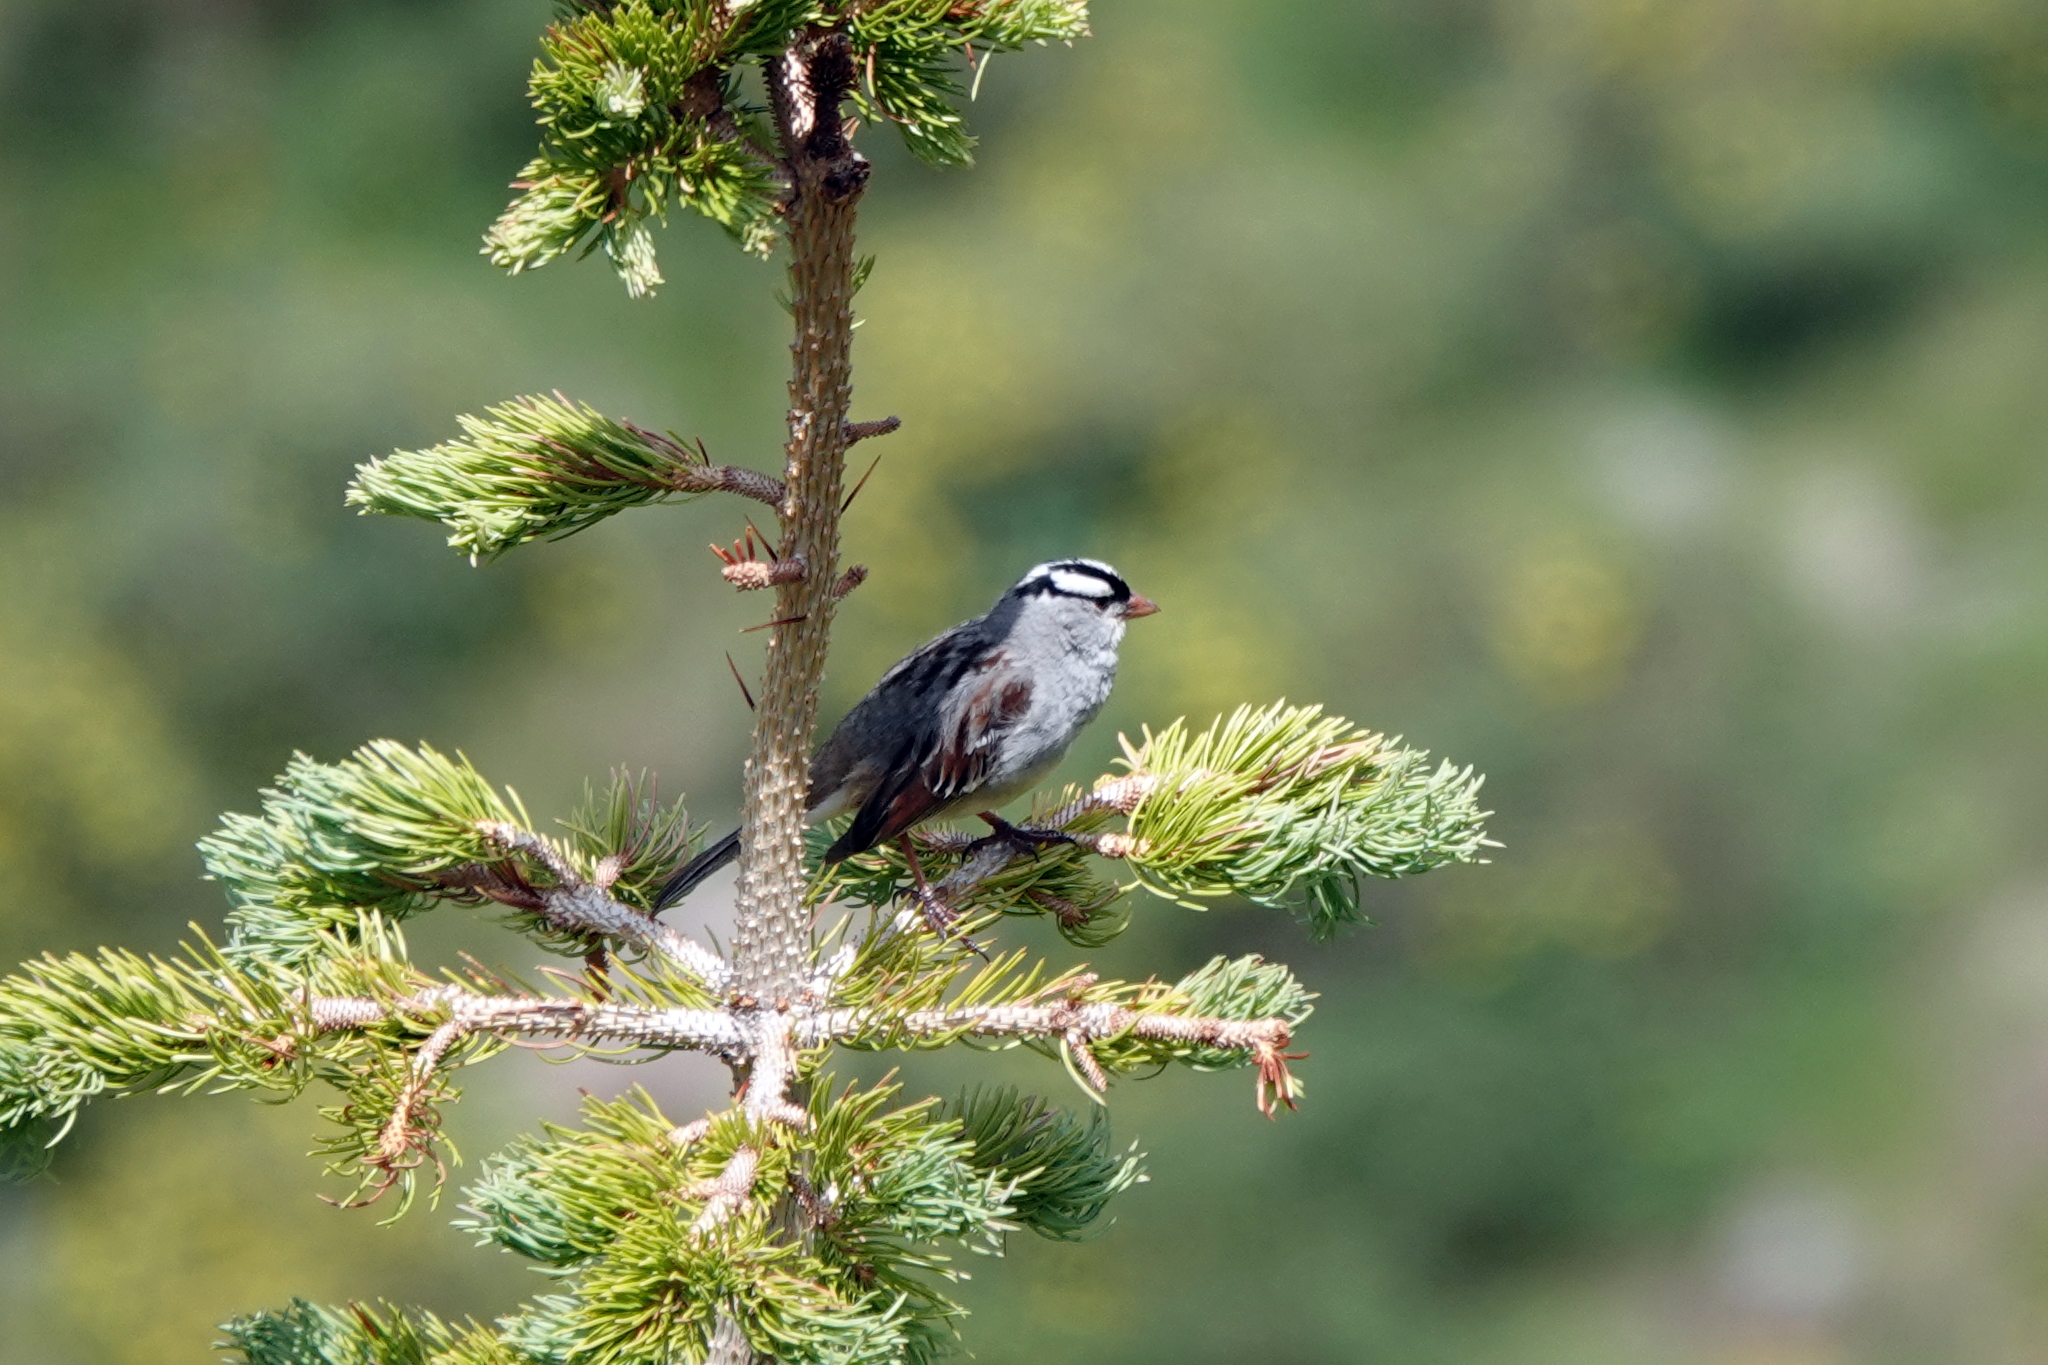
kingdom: Animalia
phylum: Chordata
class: Aves
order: Passeriformes
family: Passerellidae
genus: Zonotrichia
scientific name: Zonotrichia leucophrys
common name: White-crowned sparrow
